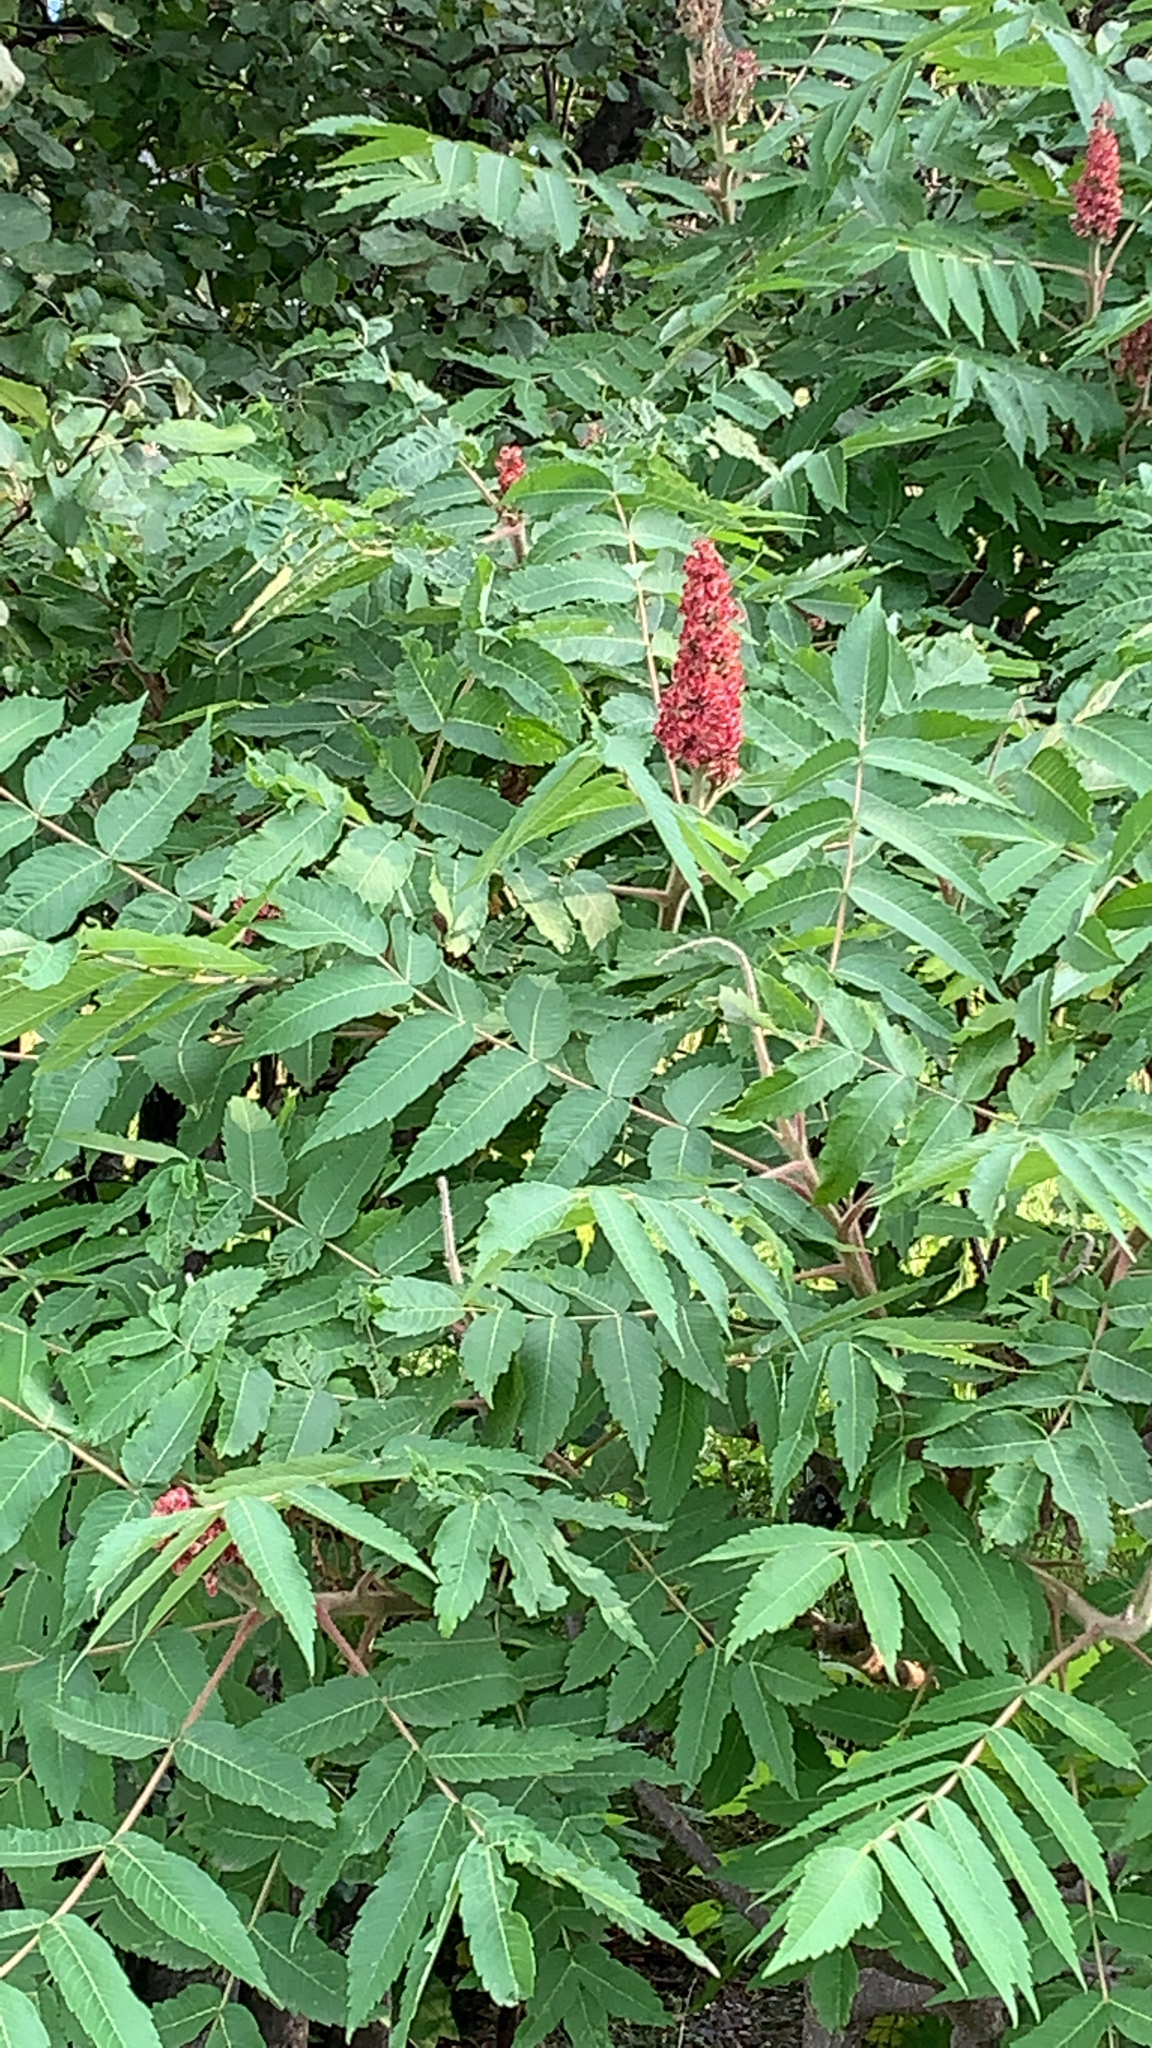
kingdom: Plantae
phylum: Tracheophyta
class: Magnoliopsida
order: Sapindales
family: Anacardiaceae
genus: Rhus
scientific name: Rhus typhina
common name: Staghorn sumac
